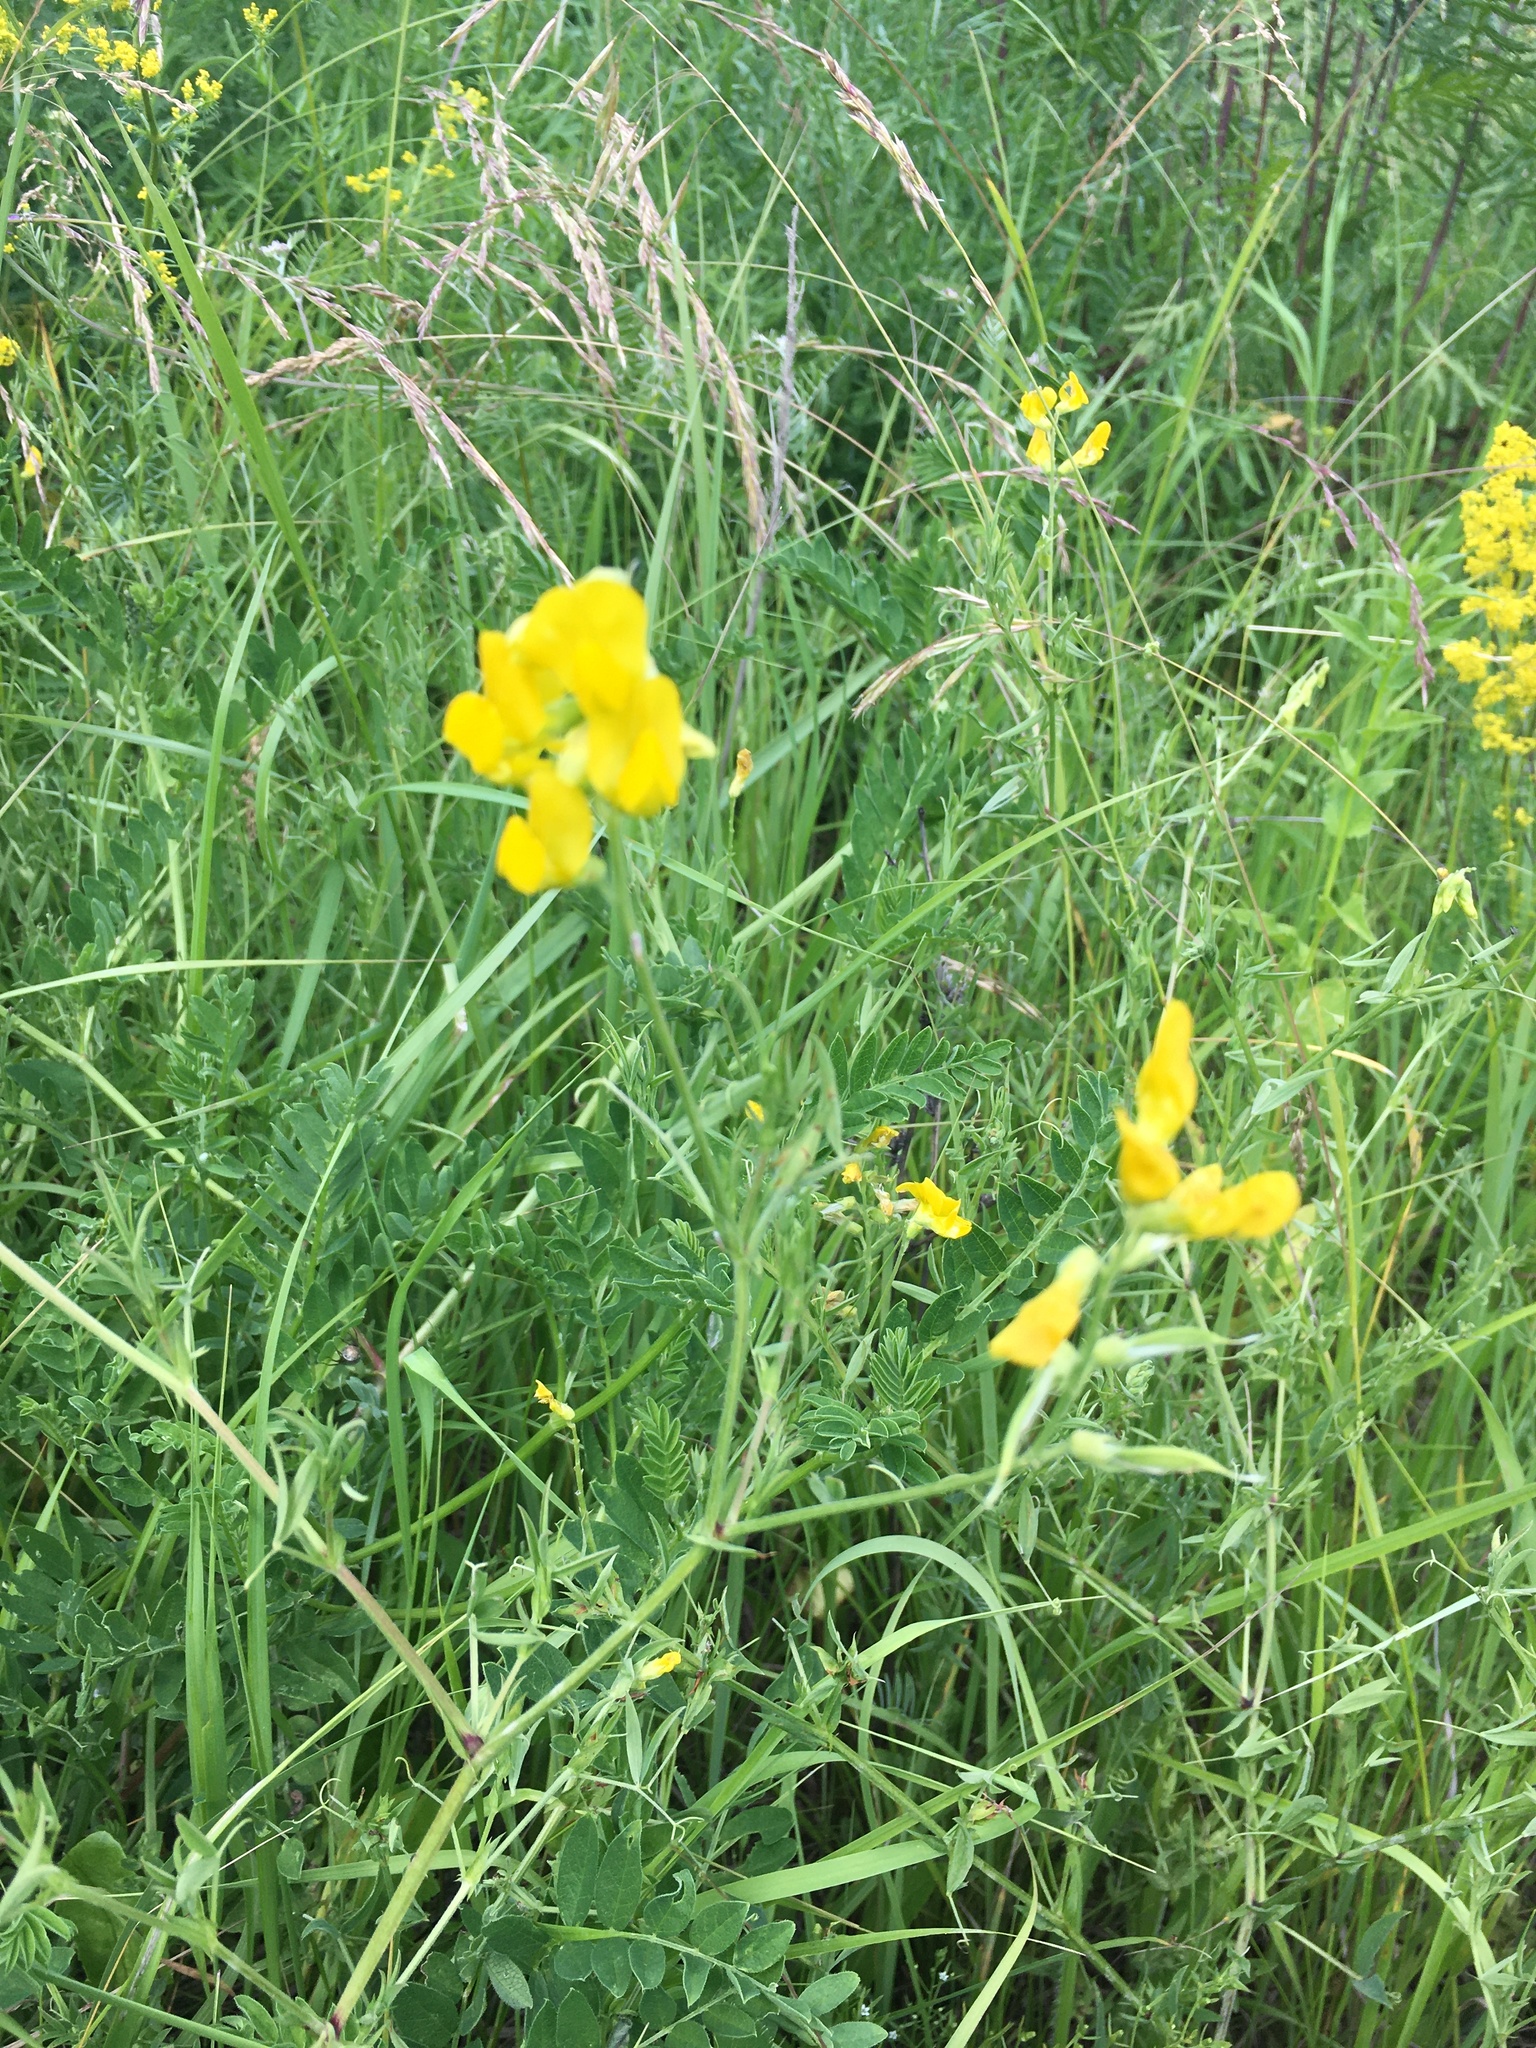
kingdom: Plantae
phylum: Tracheophyta
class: Magnoliopsida
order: Fabales
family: Fabaceae
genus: Lathyrus
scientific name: Lathyrus pratensis
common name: Meadow vetchling
